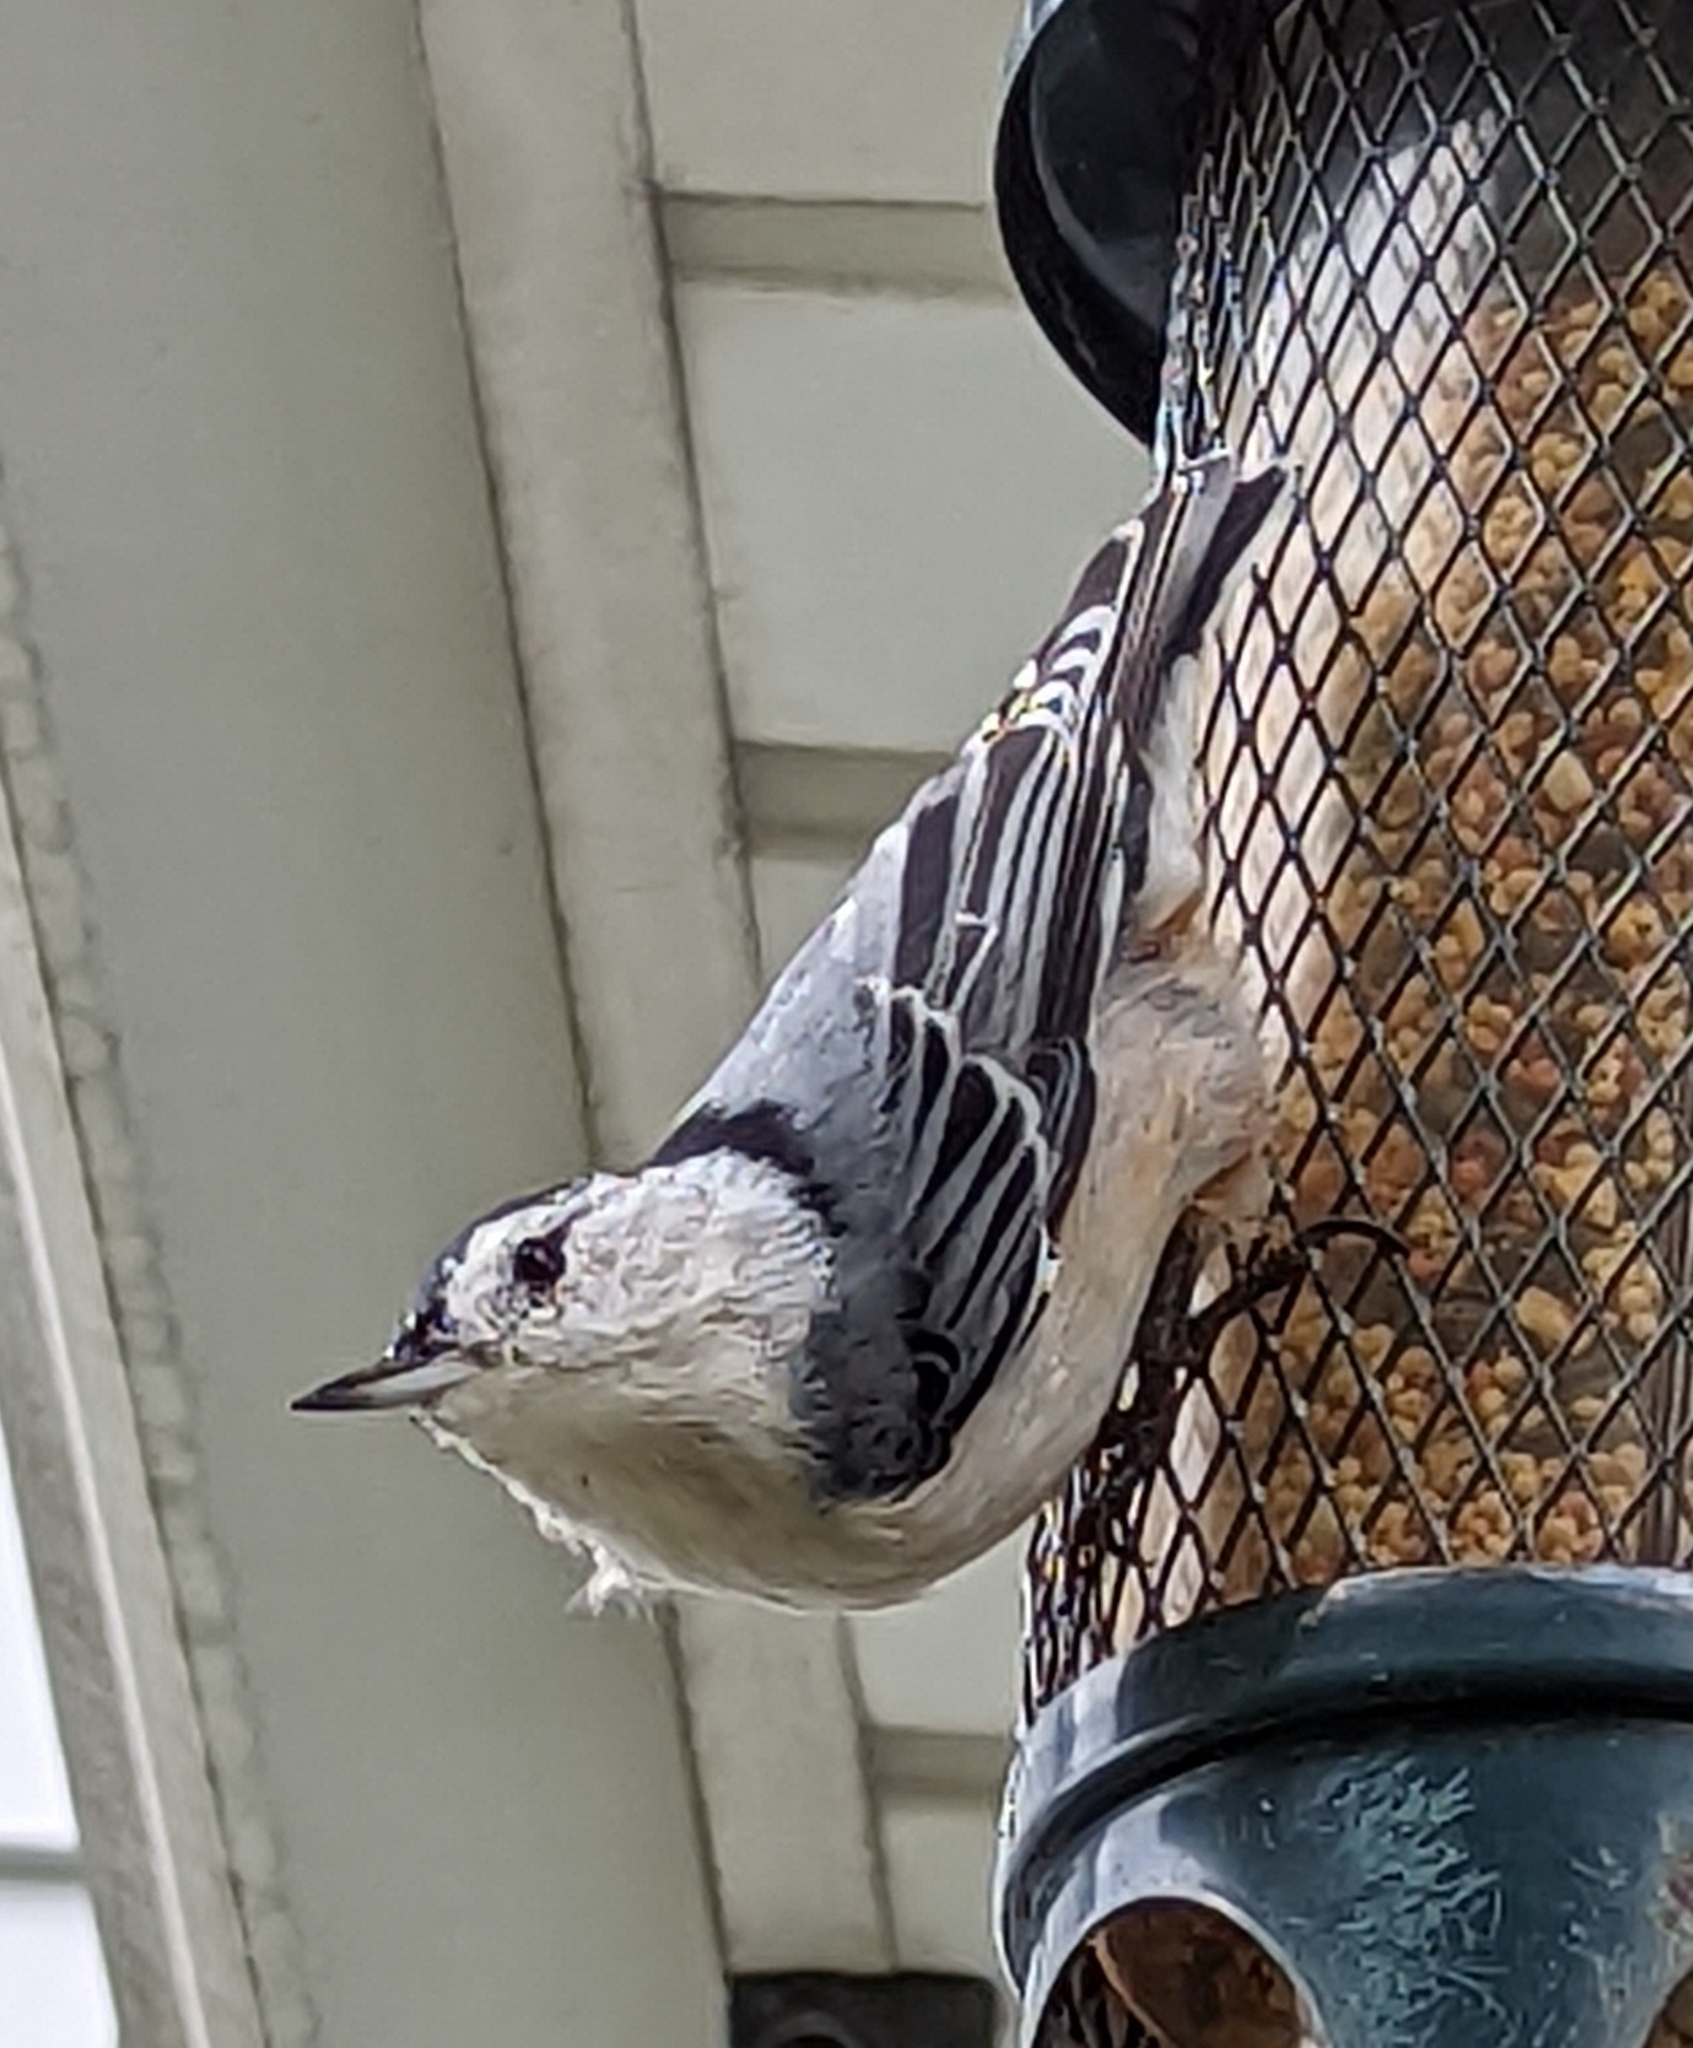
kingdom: Animalia
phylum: Chordata
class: Aves
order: Passeriformes
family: Sittidae
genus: Sitta
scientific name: Sitta carolinensis
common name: White-breasted nuthatch
